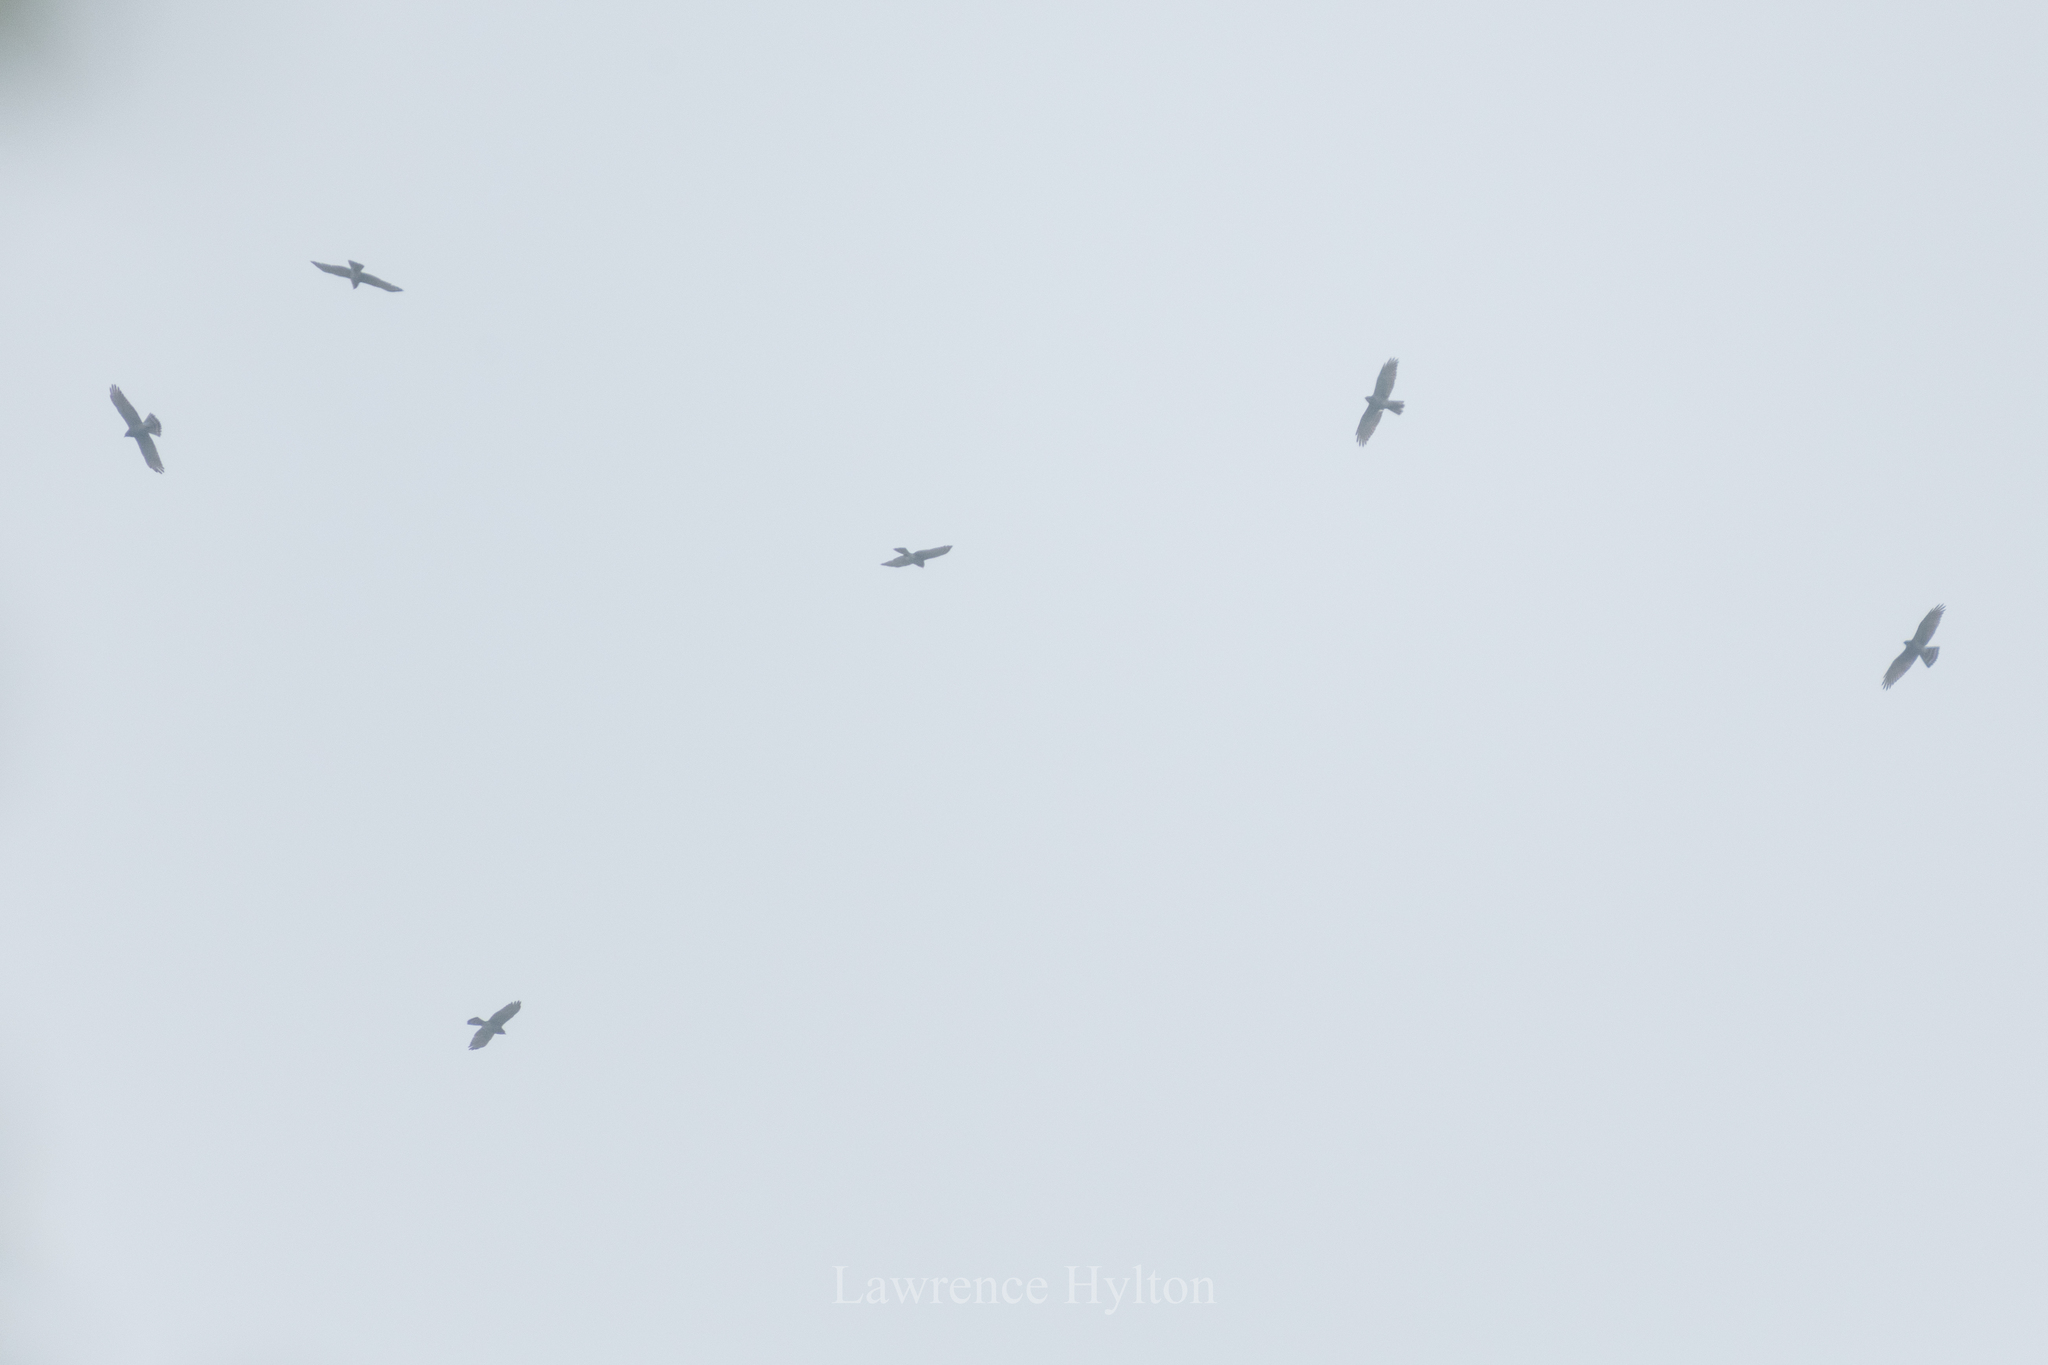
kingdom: Animalia
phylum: Chordata
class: Aves
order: Accipitriformes
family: Accipitridae
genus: Butastur
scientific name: Butastur indicus
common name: Grey-faced buzzard
